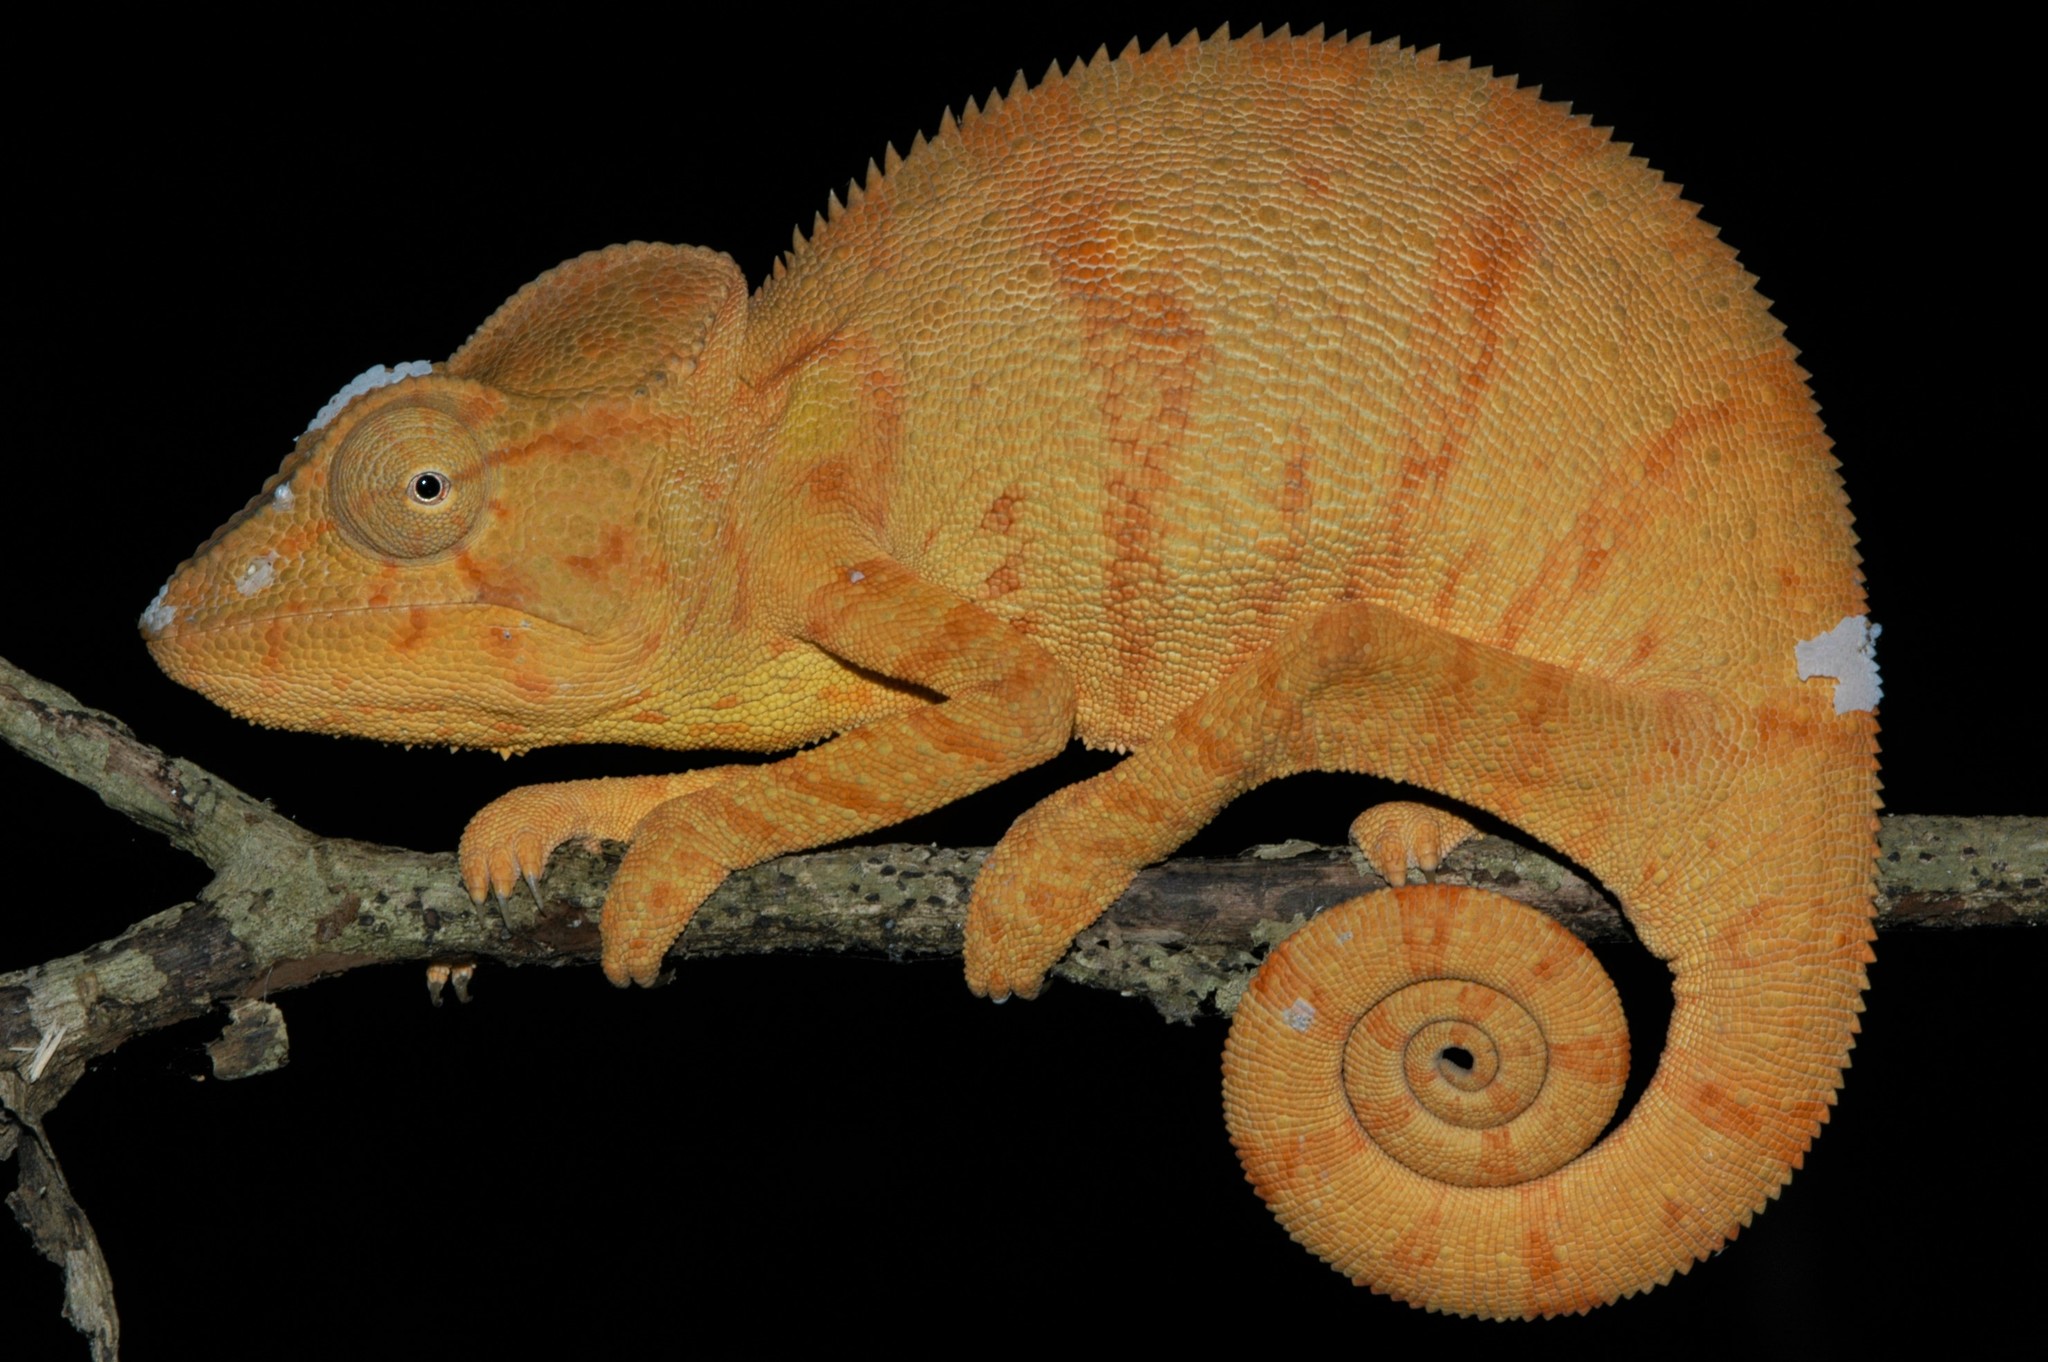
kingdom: Animalia
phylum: Chordata
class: Squamata
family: Chamaeleonidae
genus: Furcifer
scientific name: Furcifer oustaleti
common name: Oustalet's chameleon
